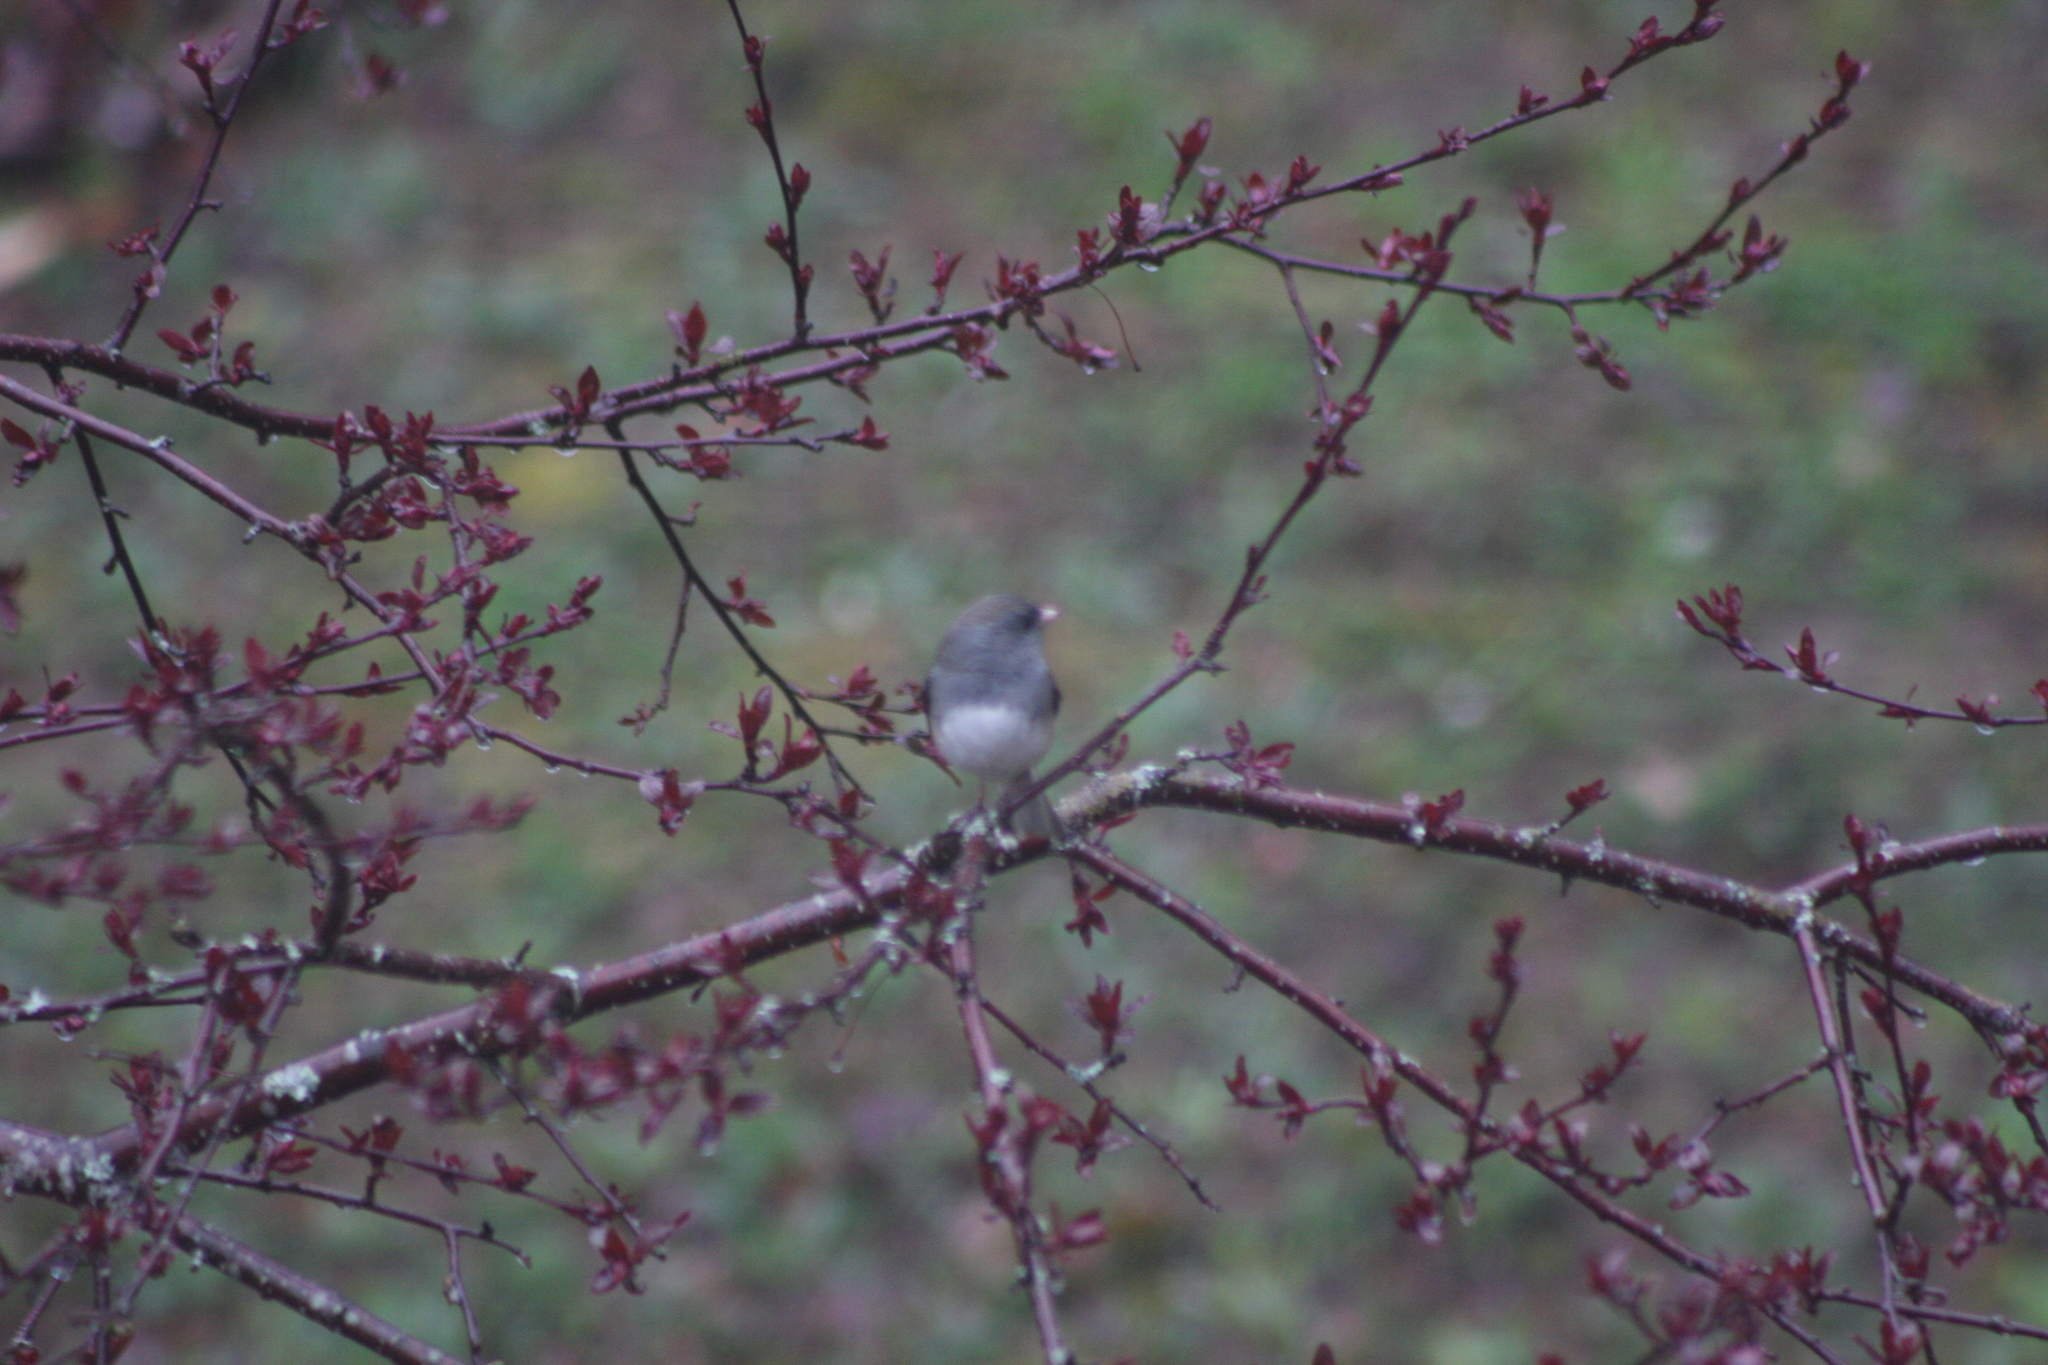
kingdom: Animalia
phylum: Chordata
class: Aves
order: Passeriformes
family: Passerellidae
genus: Junco
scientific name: Junco hyemalis
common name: Dark-eyed junco
